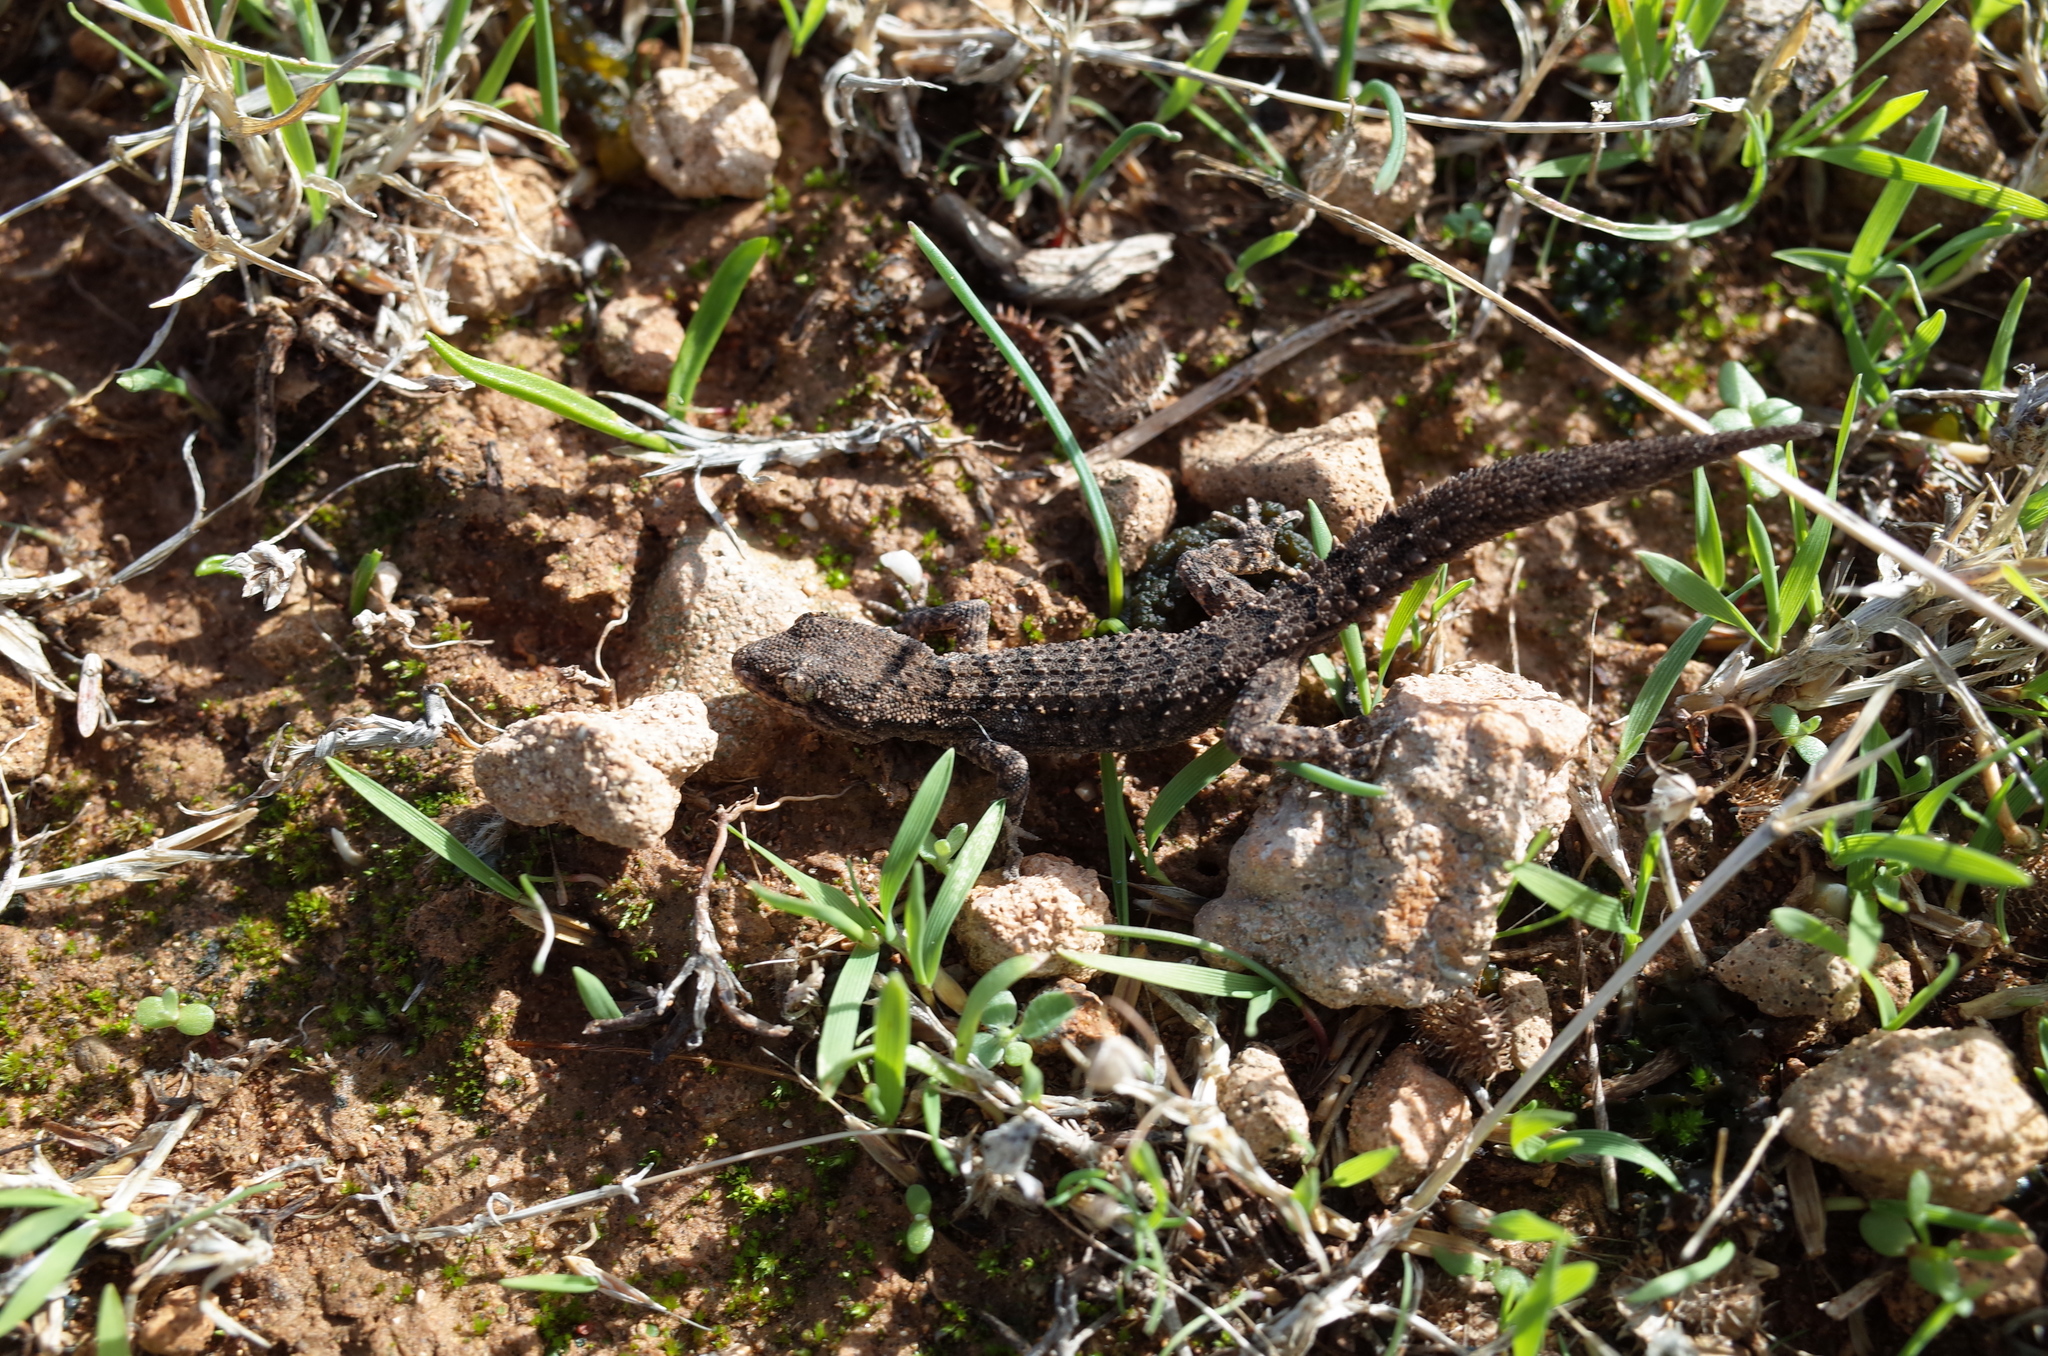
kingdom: Animalia
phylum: Chordata
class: Squamata
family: Gekkonidae
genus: Mediodactylus
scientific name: Mediodactylus orientalis
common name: Mediterranean thin-toed gecko
